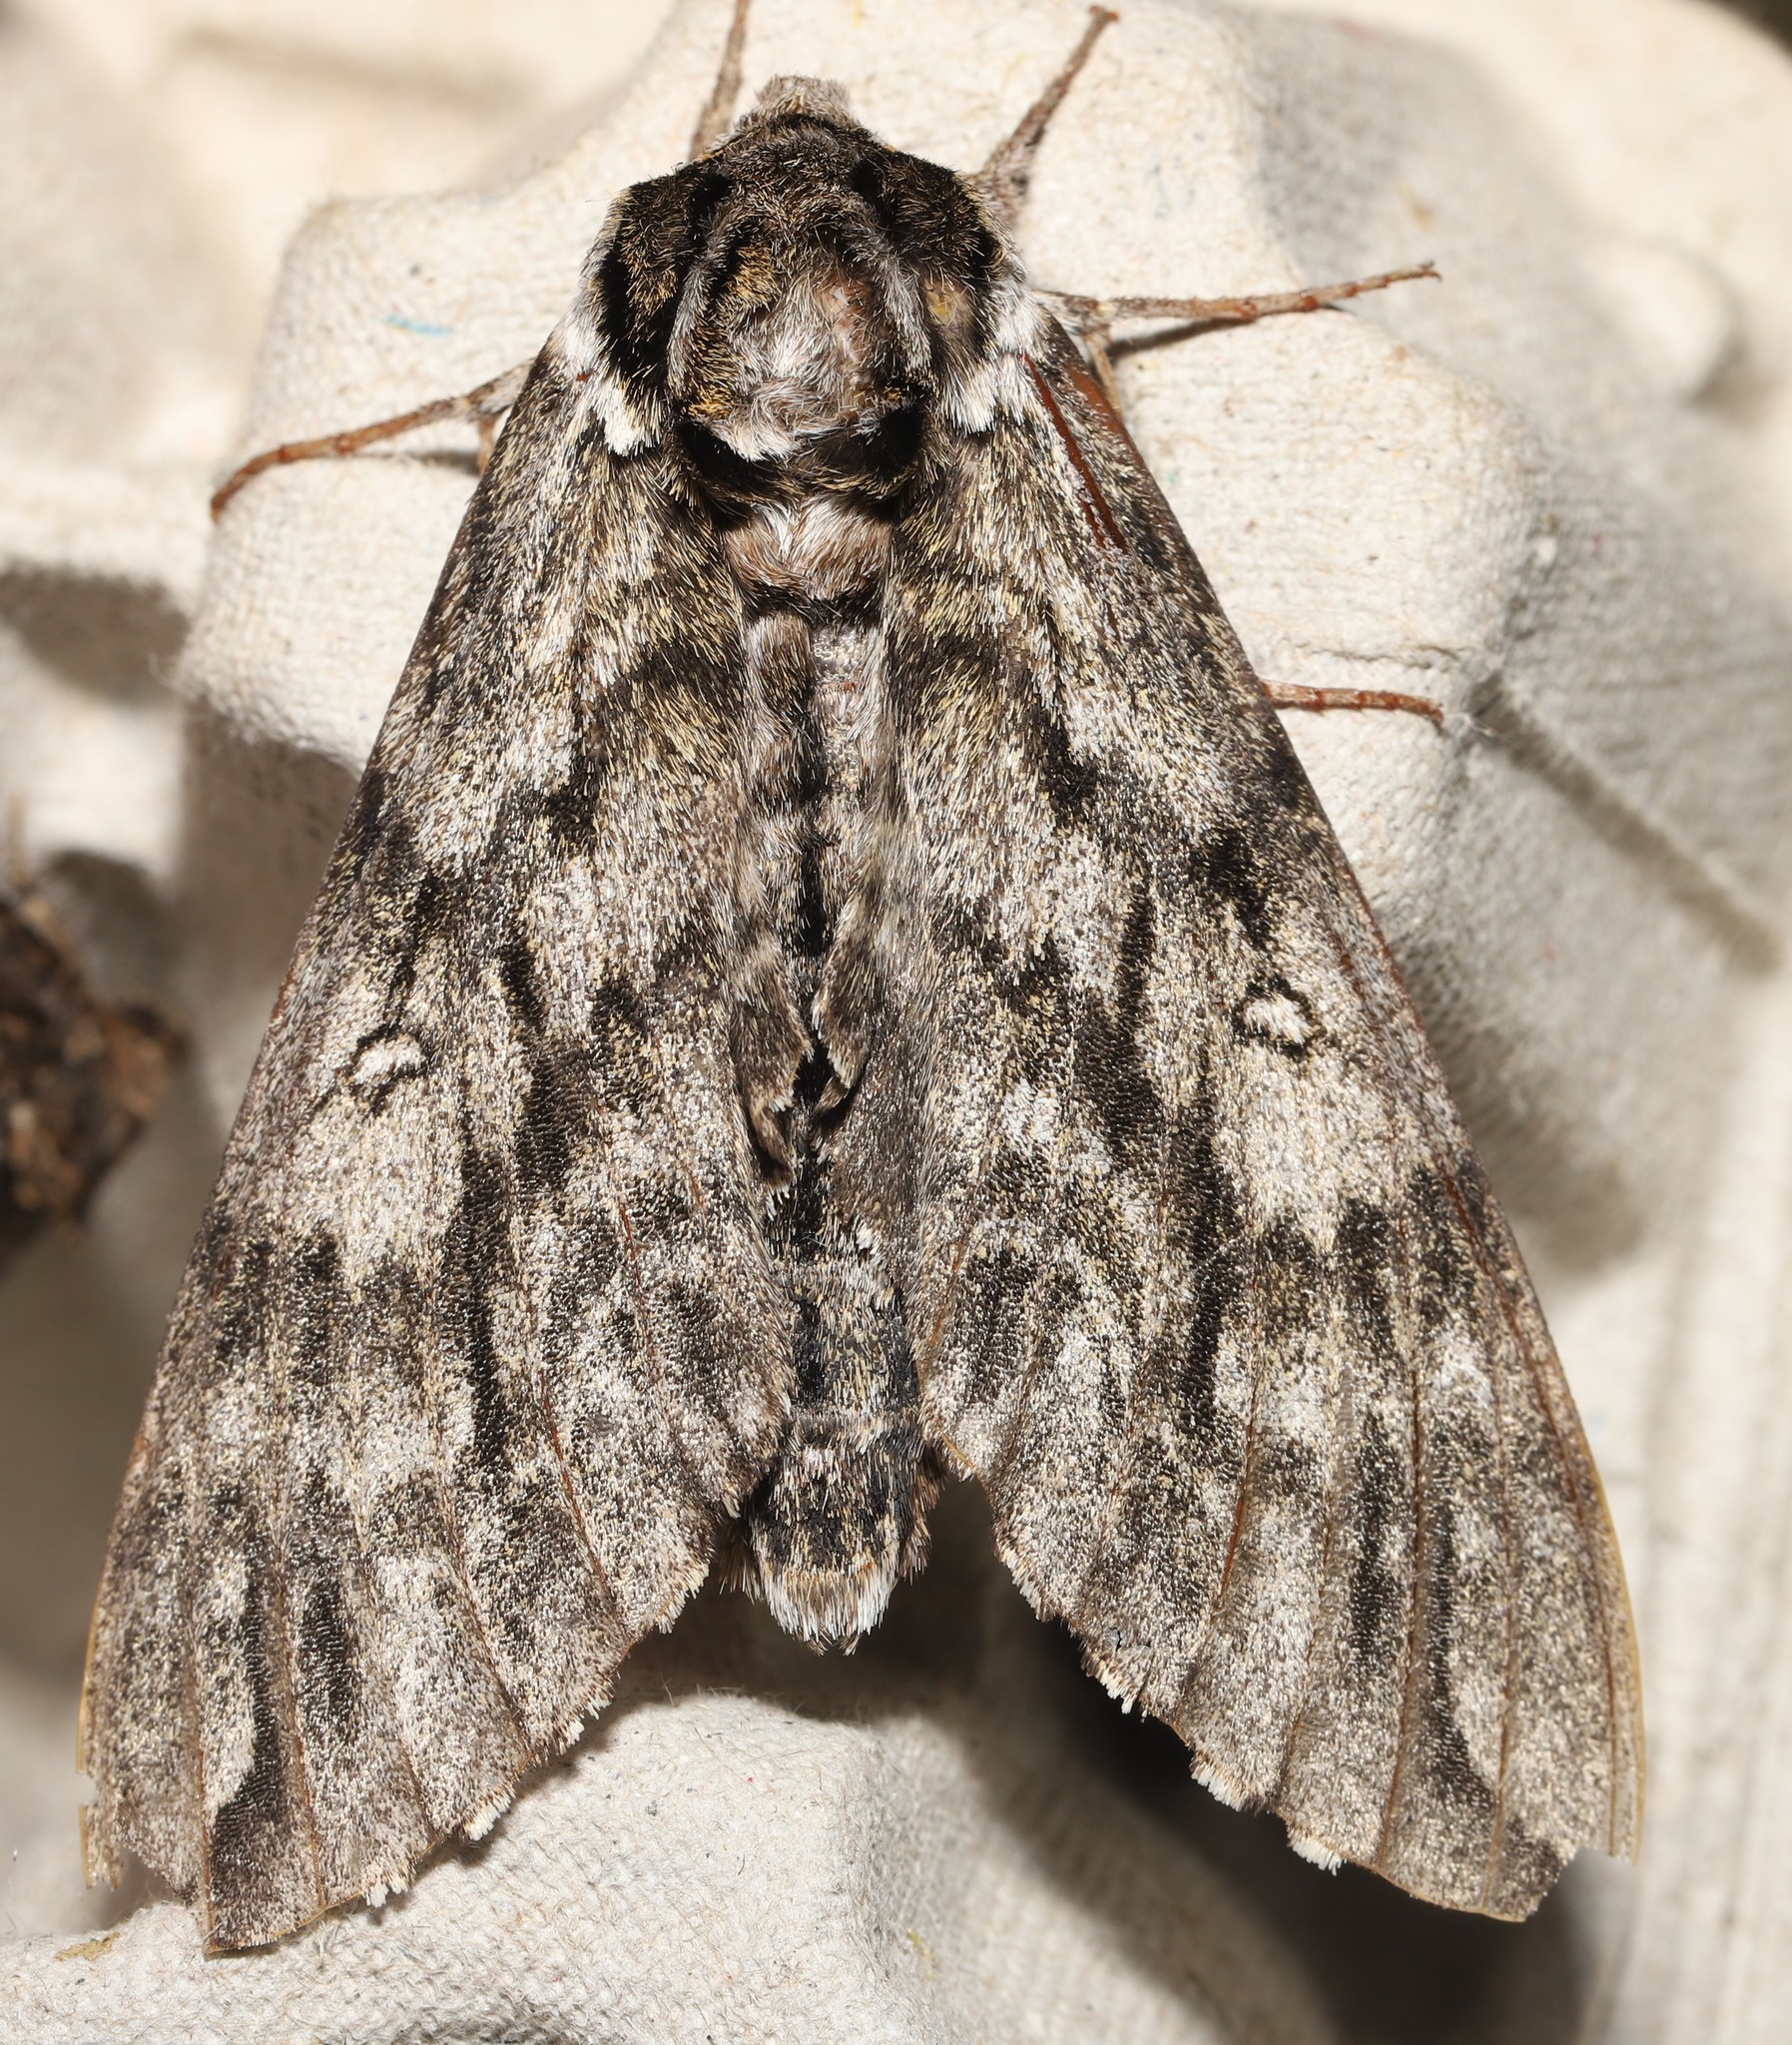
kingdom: Animalia
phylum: Arthropoda
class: Insecta
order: Lepidoptera
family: Sphingidae
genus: Ceratomia
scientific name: Ceratomia undulosa
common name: Waved sphinx
